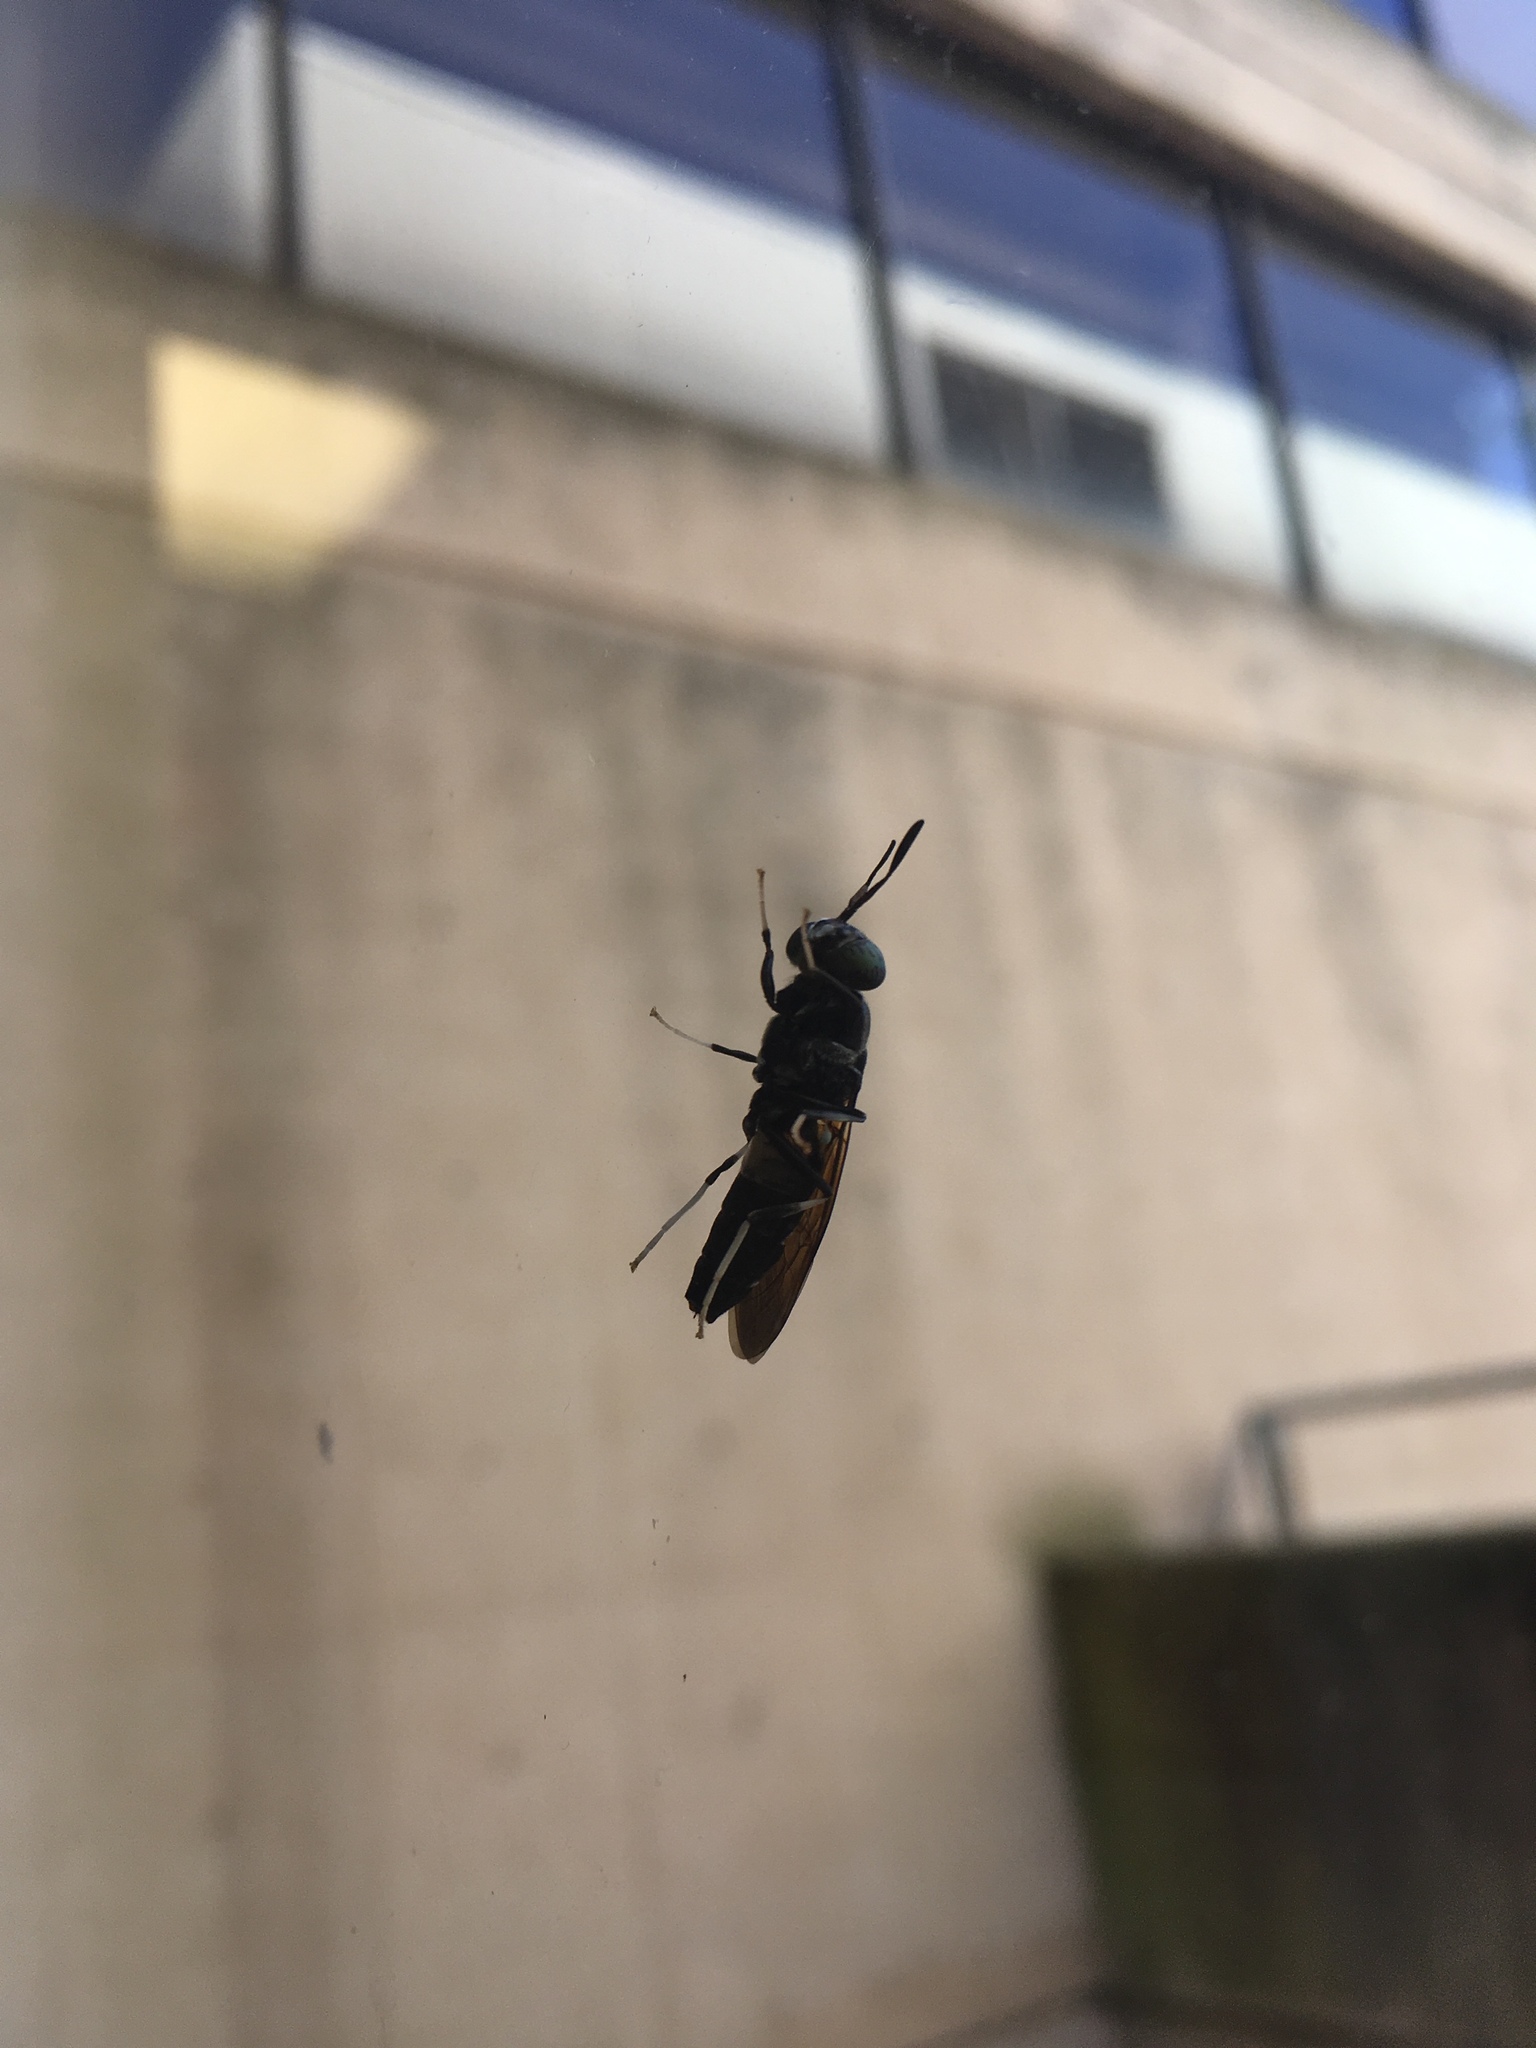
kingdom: Animalia
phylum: Arthropoda
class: Insecta
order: Diptera
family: Stratiomyidae
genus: Hermetia
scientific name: Hermetia illucens
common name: Black soldier fly
